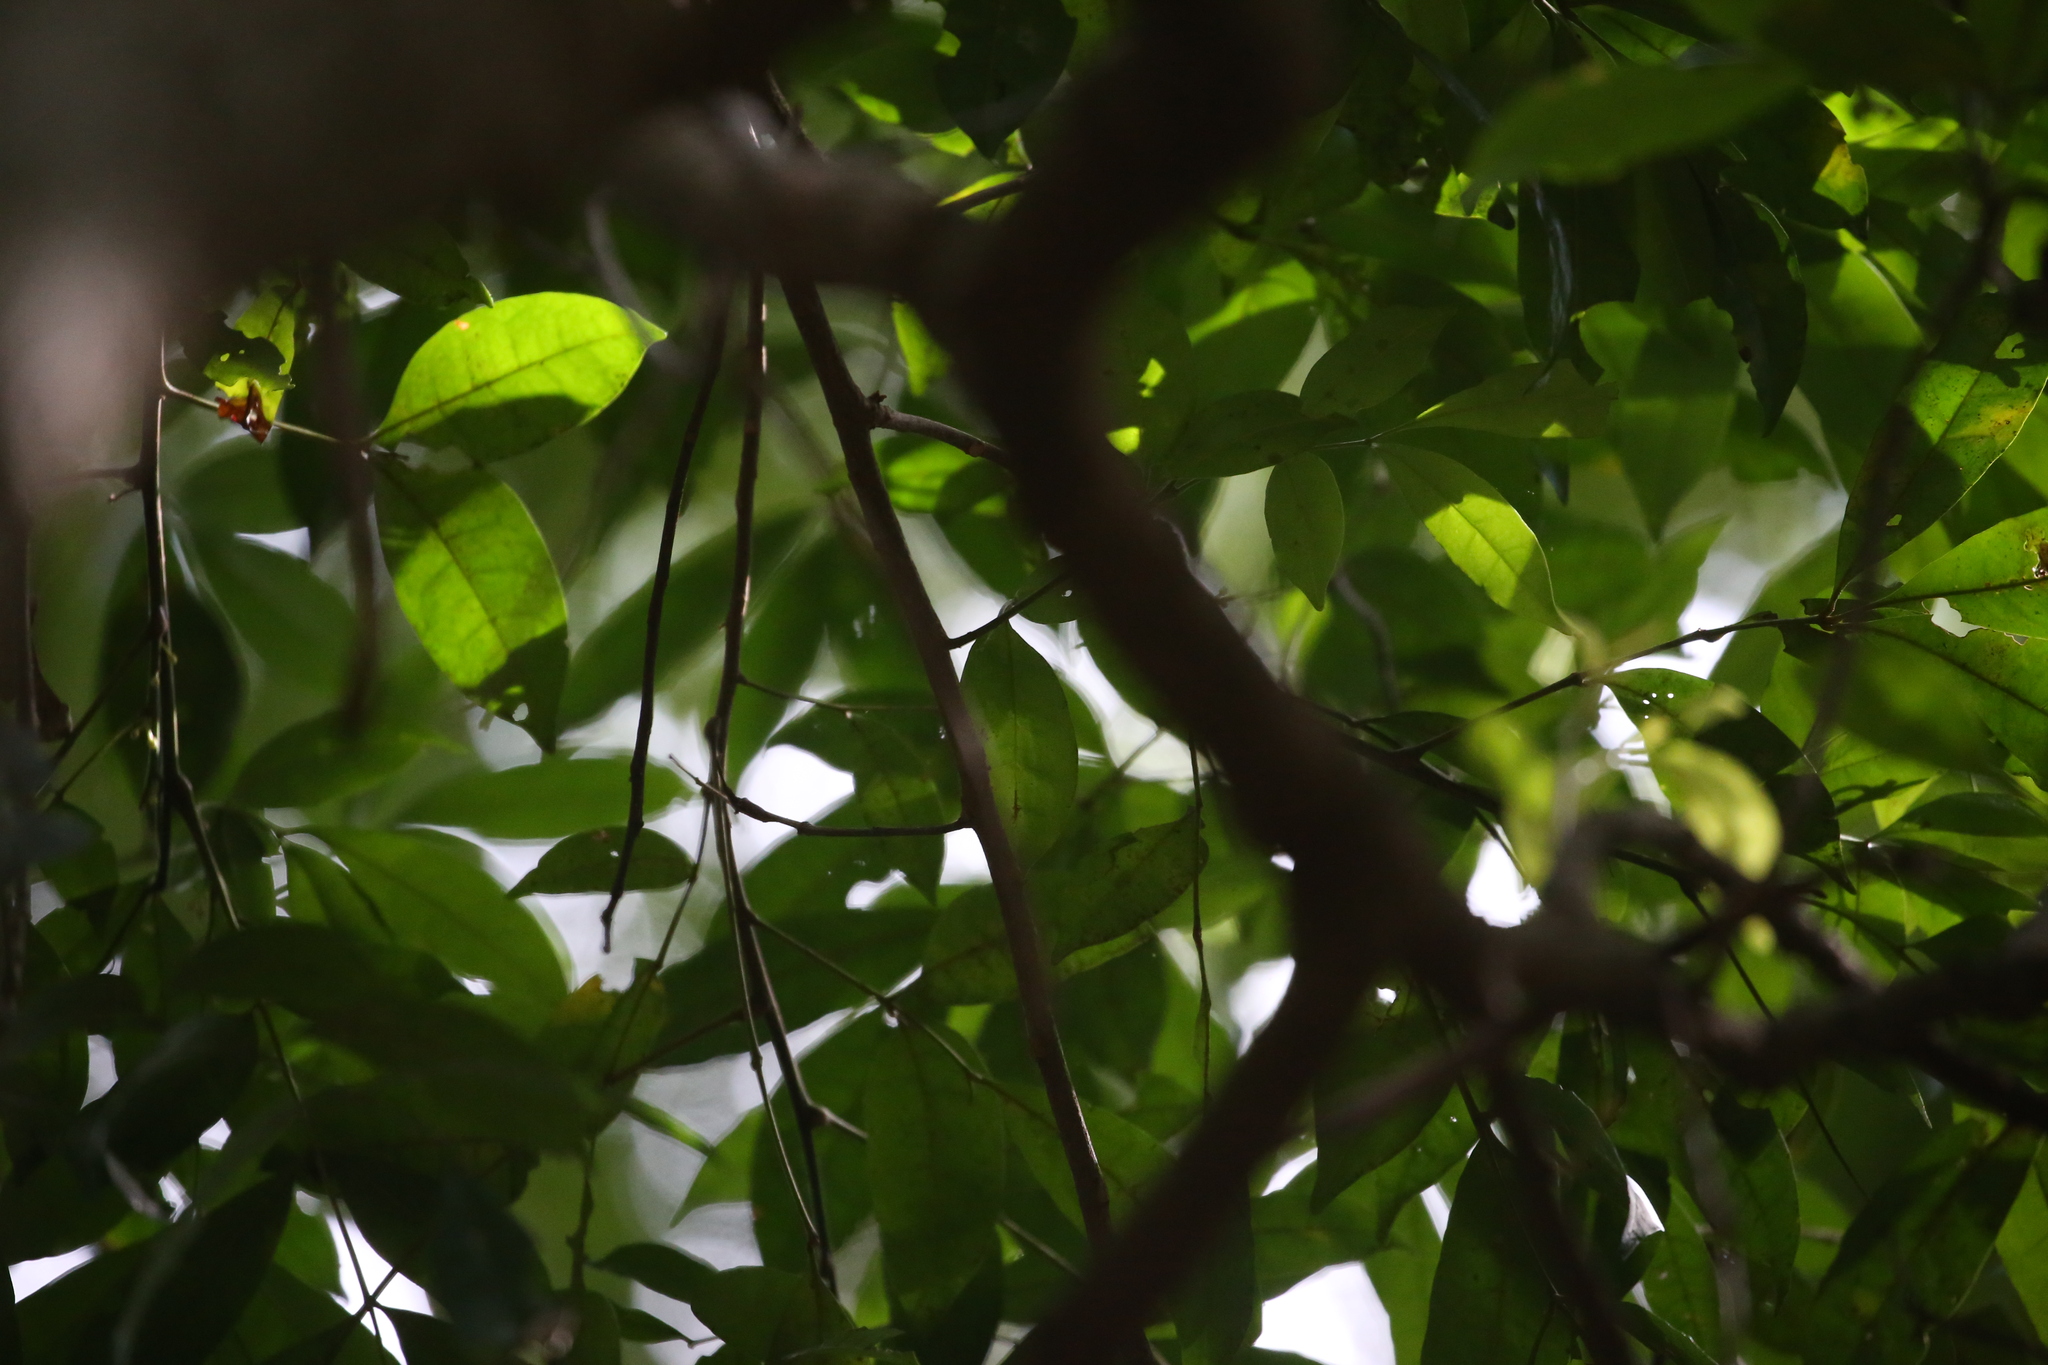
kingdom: Animalia
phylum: Chordata
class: Aves
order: Passeriformes
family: Acanthizidae
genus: Gerygone
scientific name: Gerygone mouki
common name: Brown gerygone
